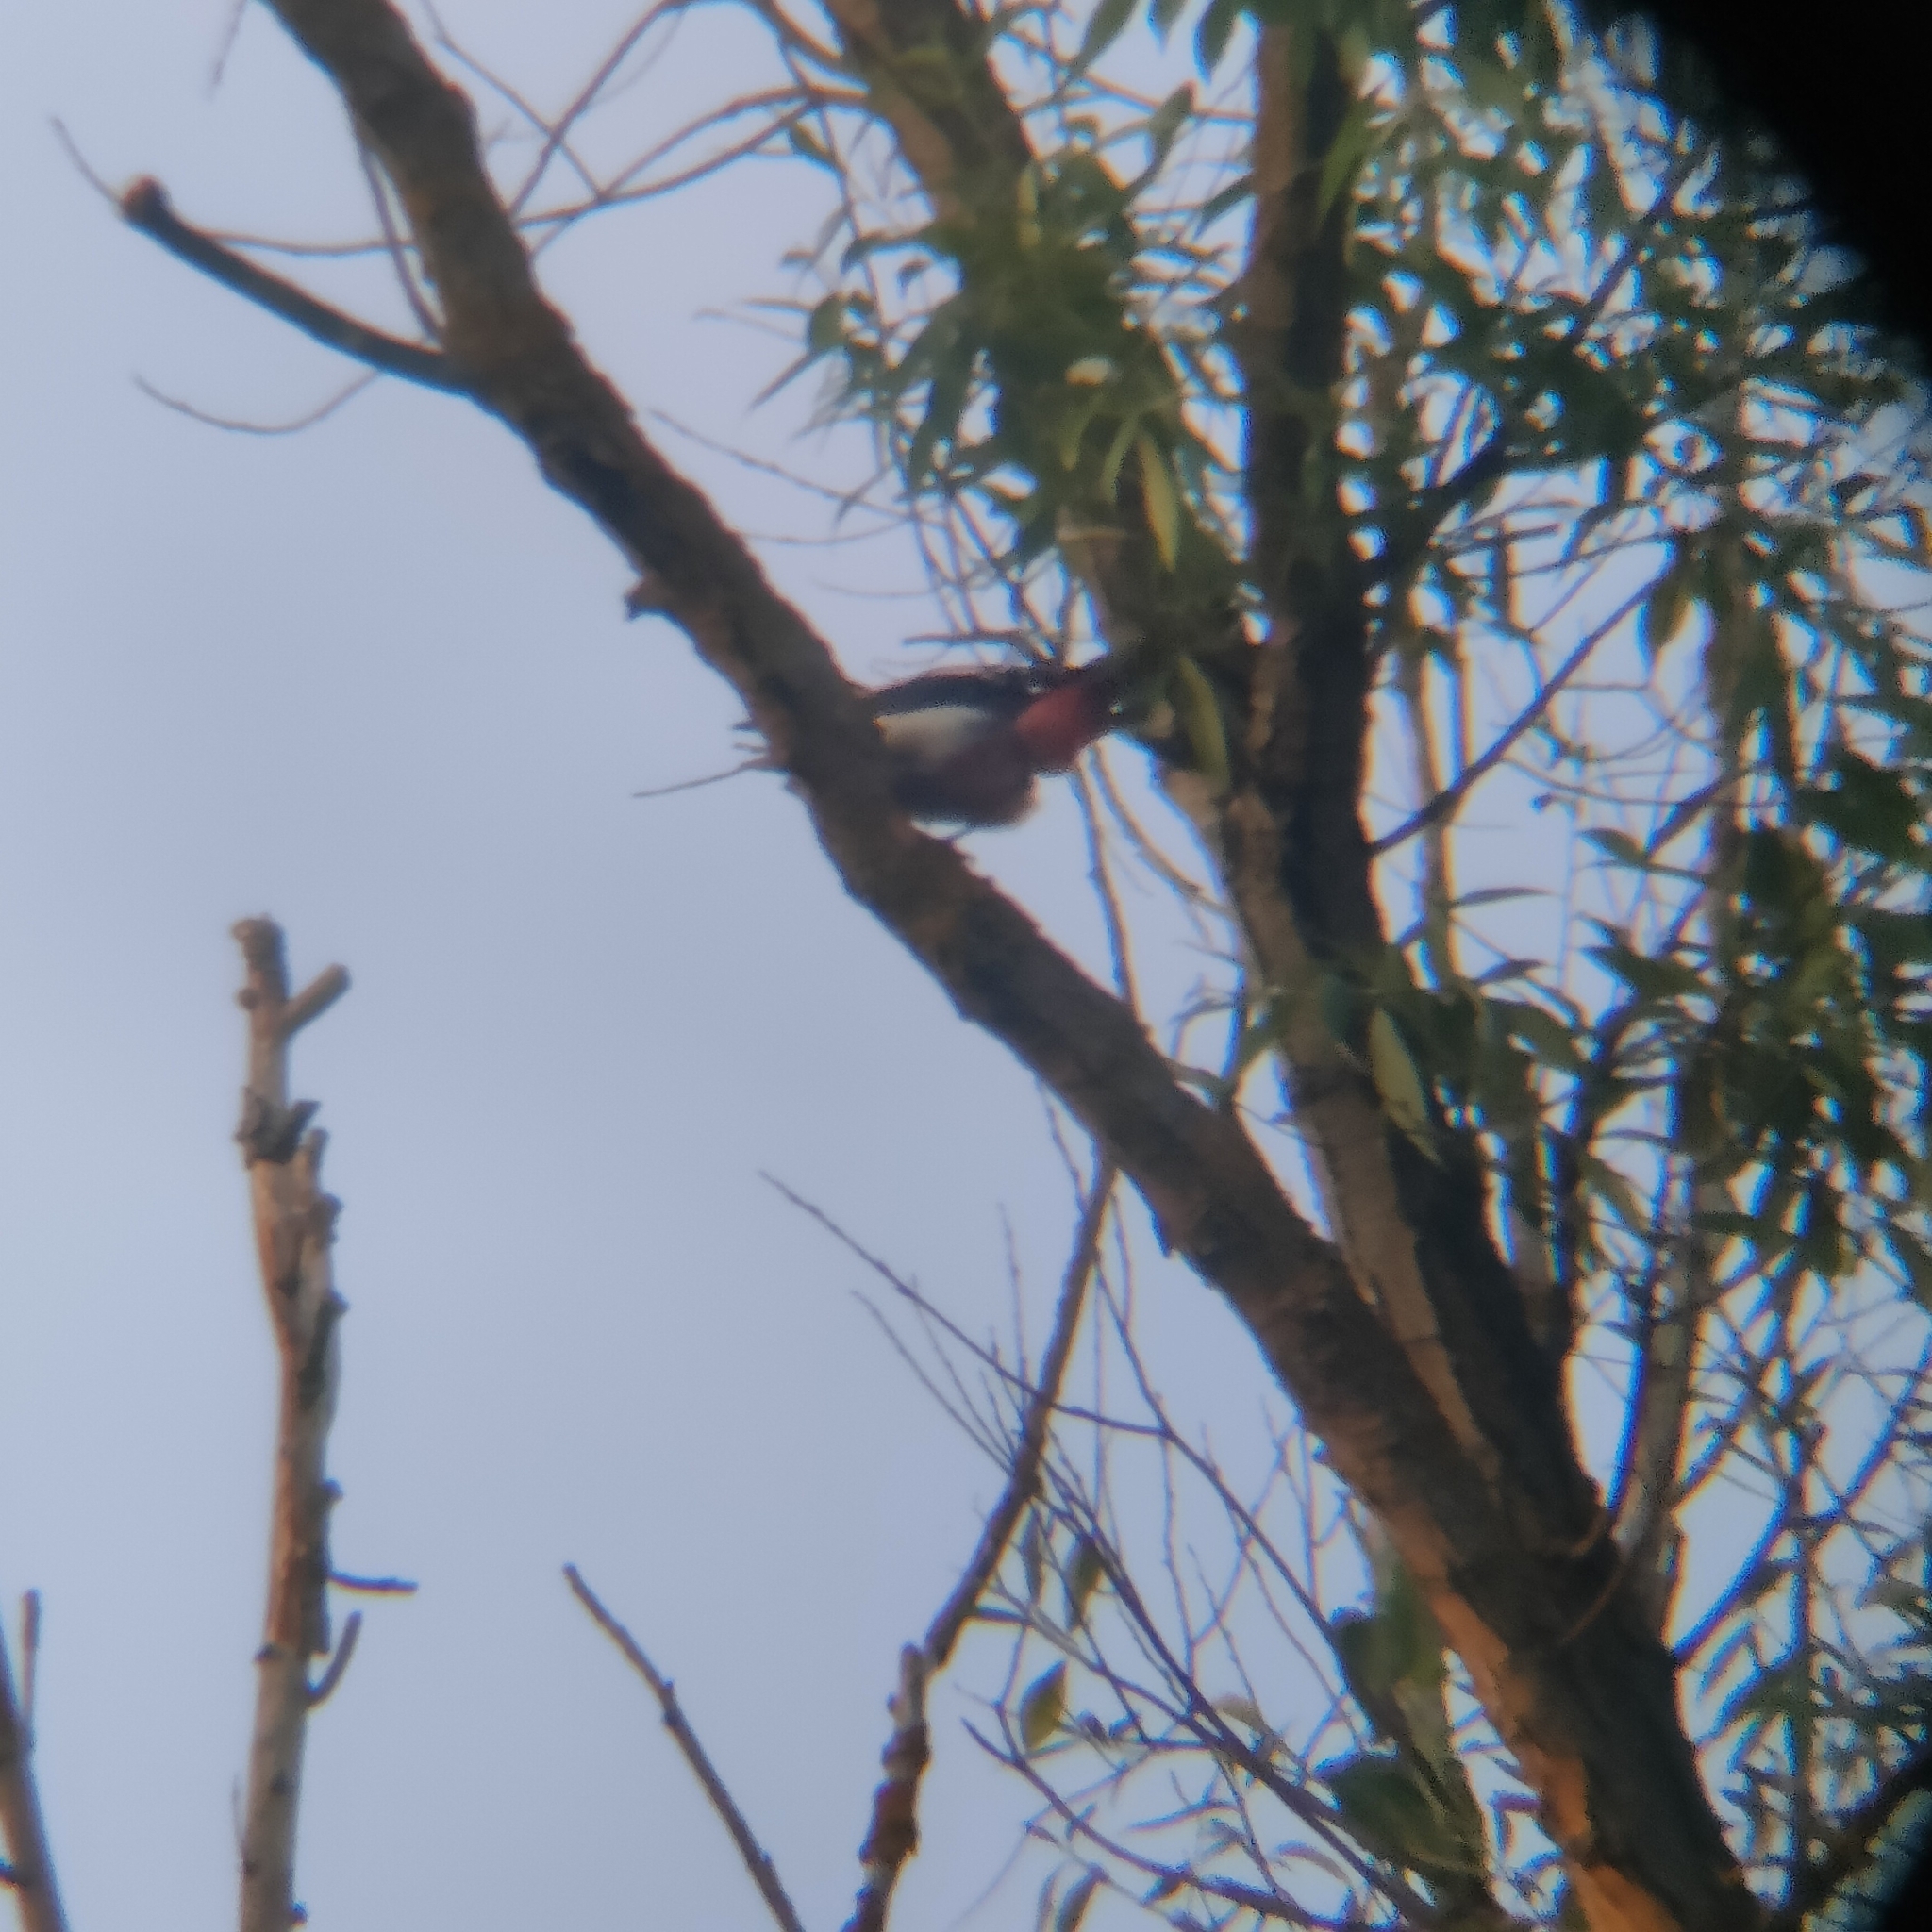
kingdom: Animalia
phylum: Chordata
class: Aves
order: Piciformes
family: Picidae
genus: Dendrocopos
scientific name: Dendrocopos major
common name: Great spotted woodpecker
